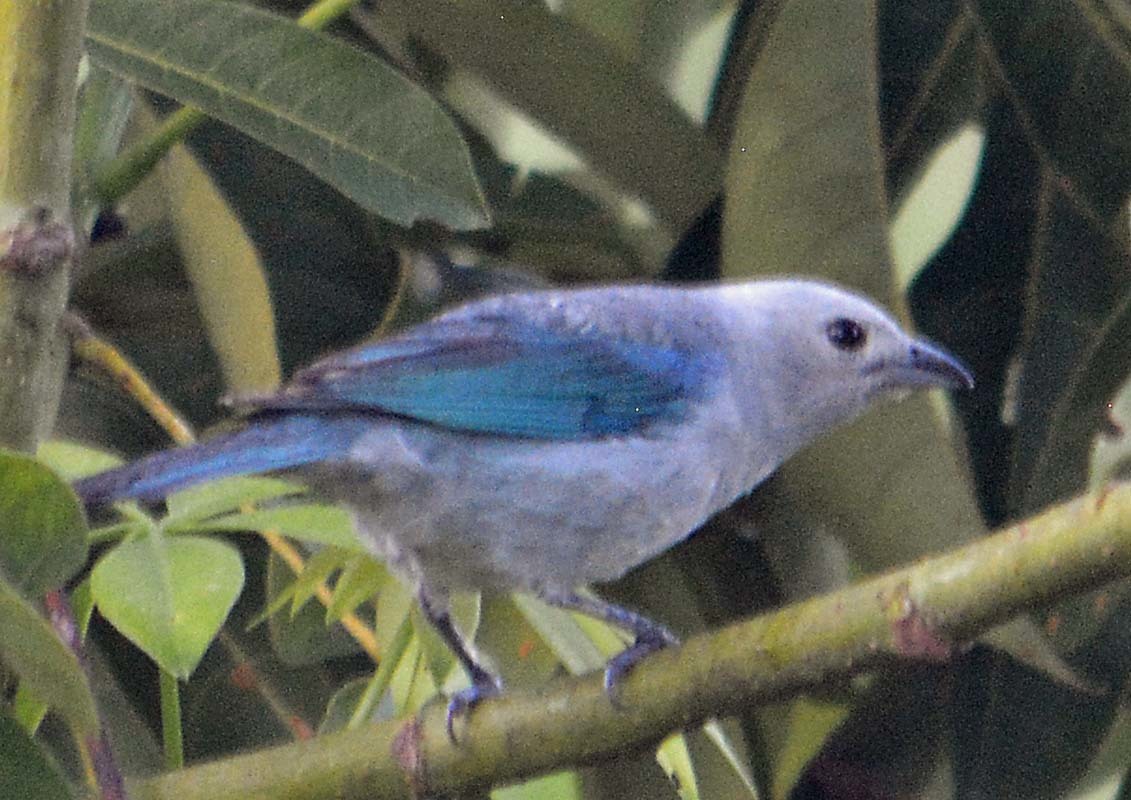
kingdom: Animalia
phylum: Chordata
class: Aves
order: Passeriformes
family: Thraupidae
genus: Thraupis
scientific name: Thraupis episcopus
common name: Blue-grey tanager
